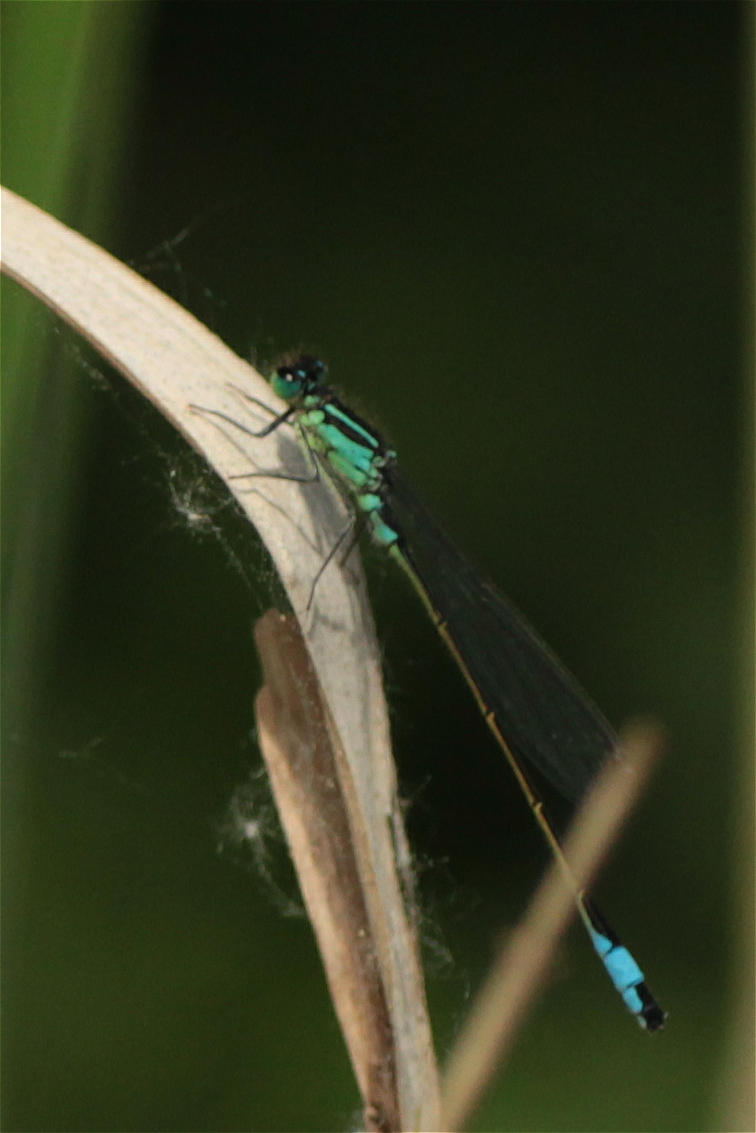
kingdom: Animalia
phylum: Arthropoda
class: Insecta
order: Odonata
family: Coenagrionidae
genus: Ischnura
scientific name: Ischnura elegans
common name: Blue-tailed damselfly
